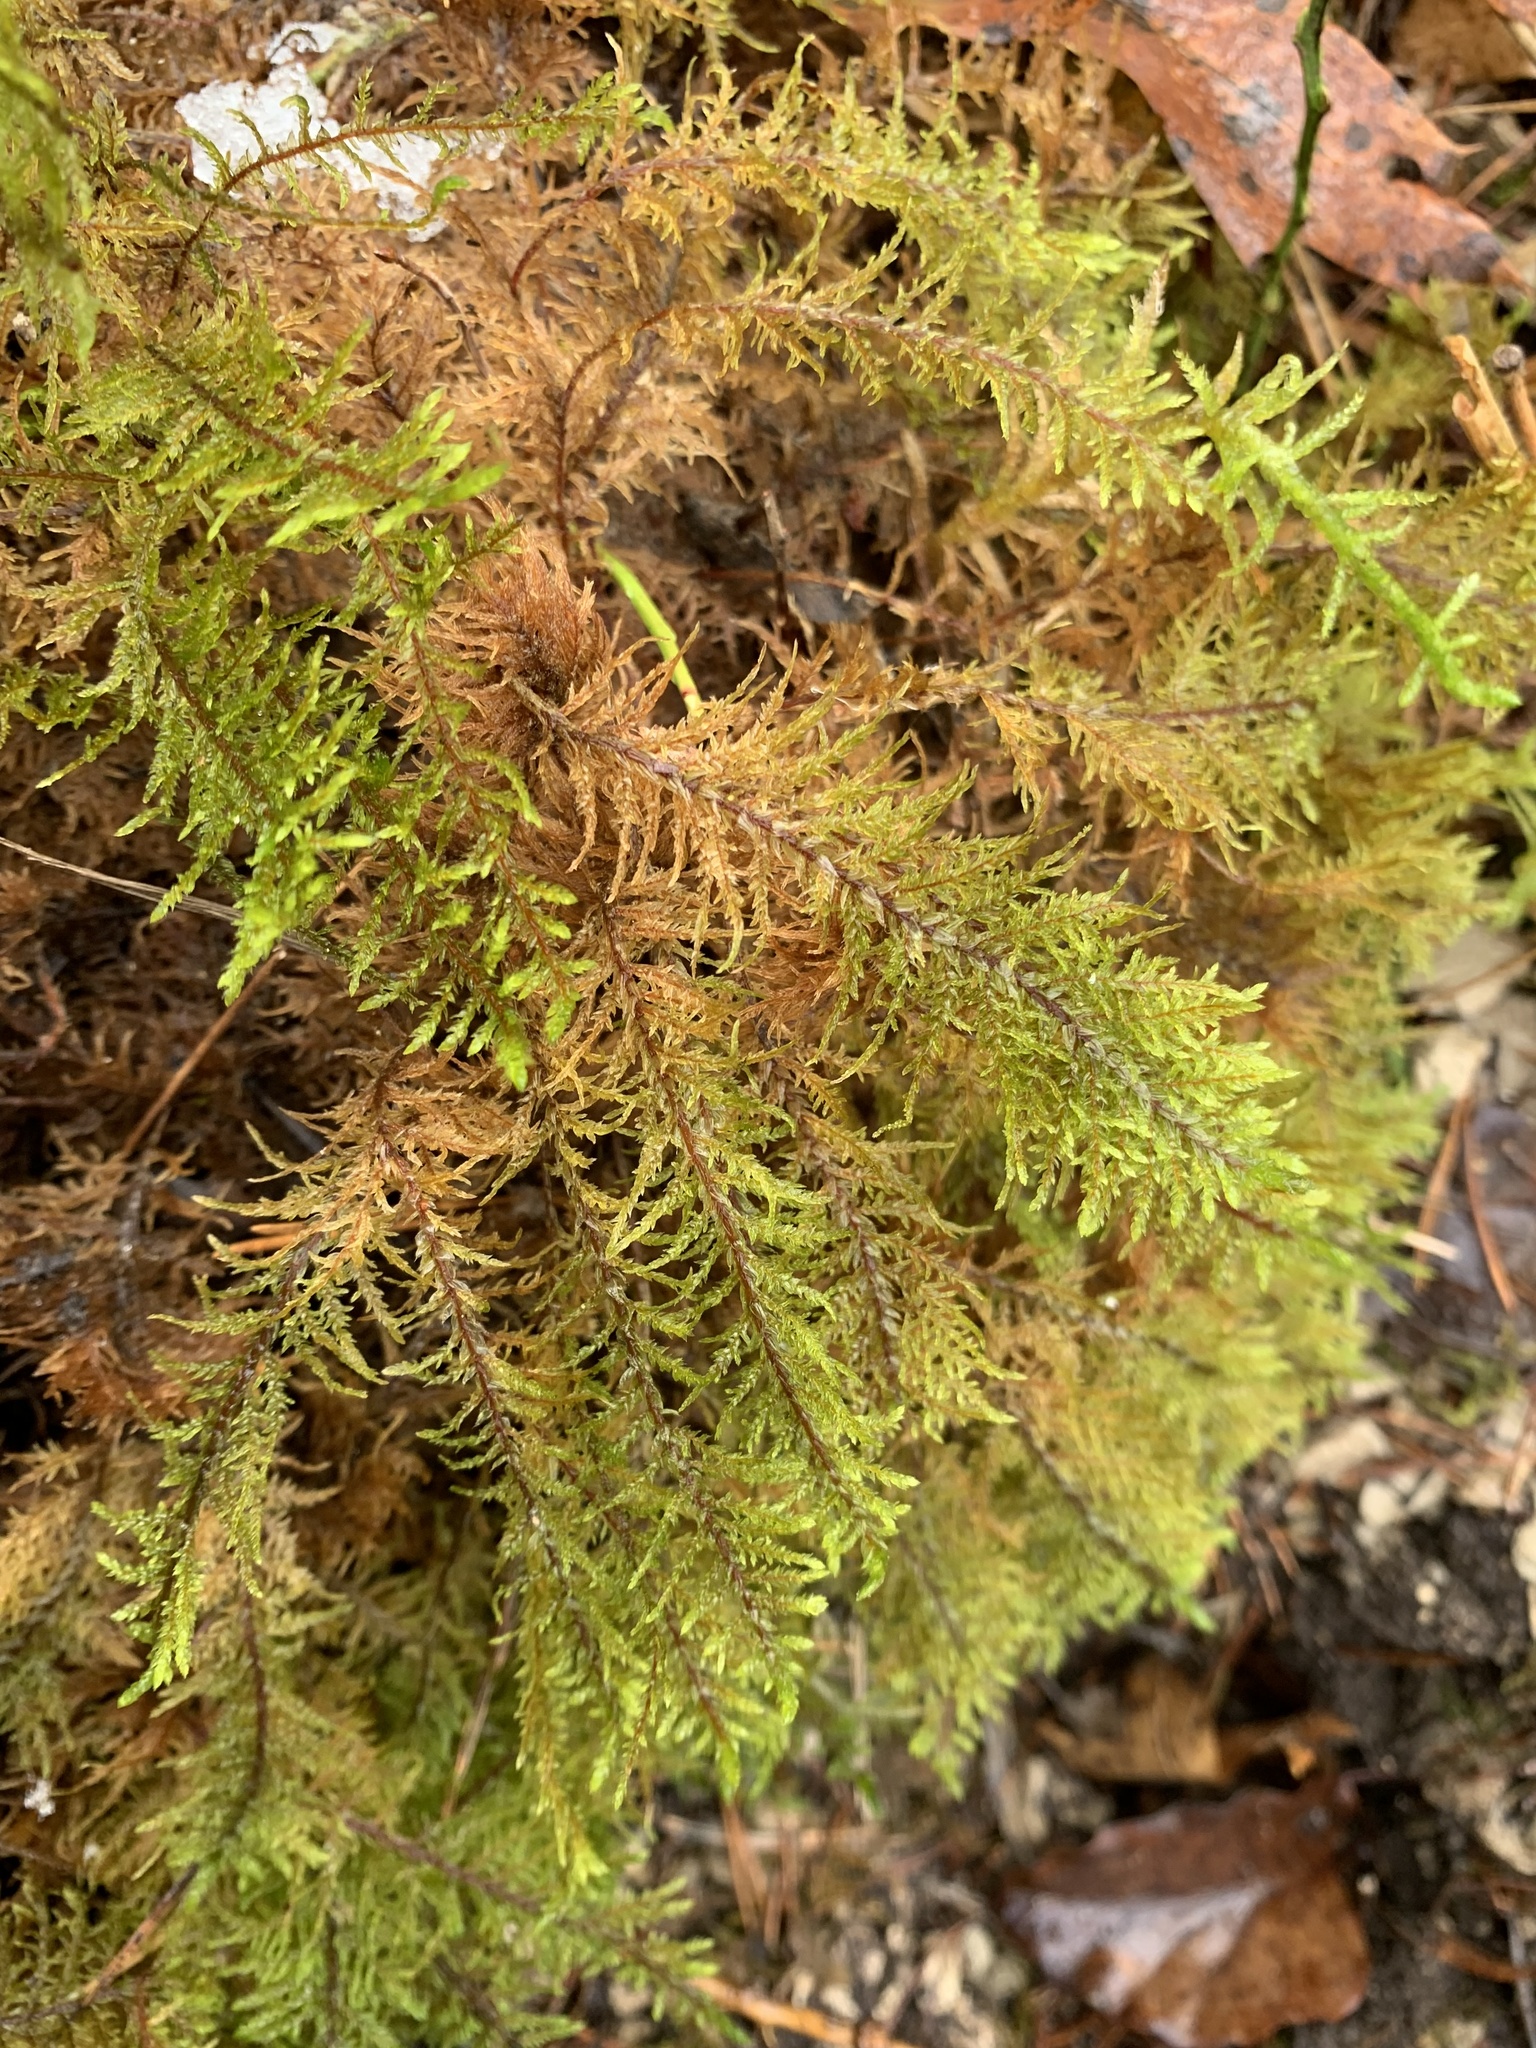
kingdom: Plantae
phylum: Bryophyta
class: Bryopsida
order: Hypnales
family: Hylocomiaceae
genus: Hylocomium
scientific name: Hylocomium splendens
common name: Stairstep moss
